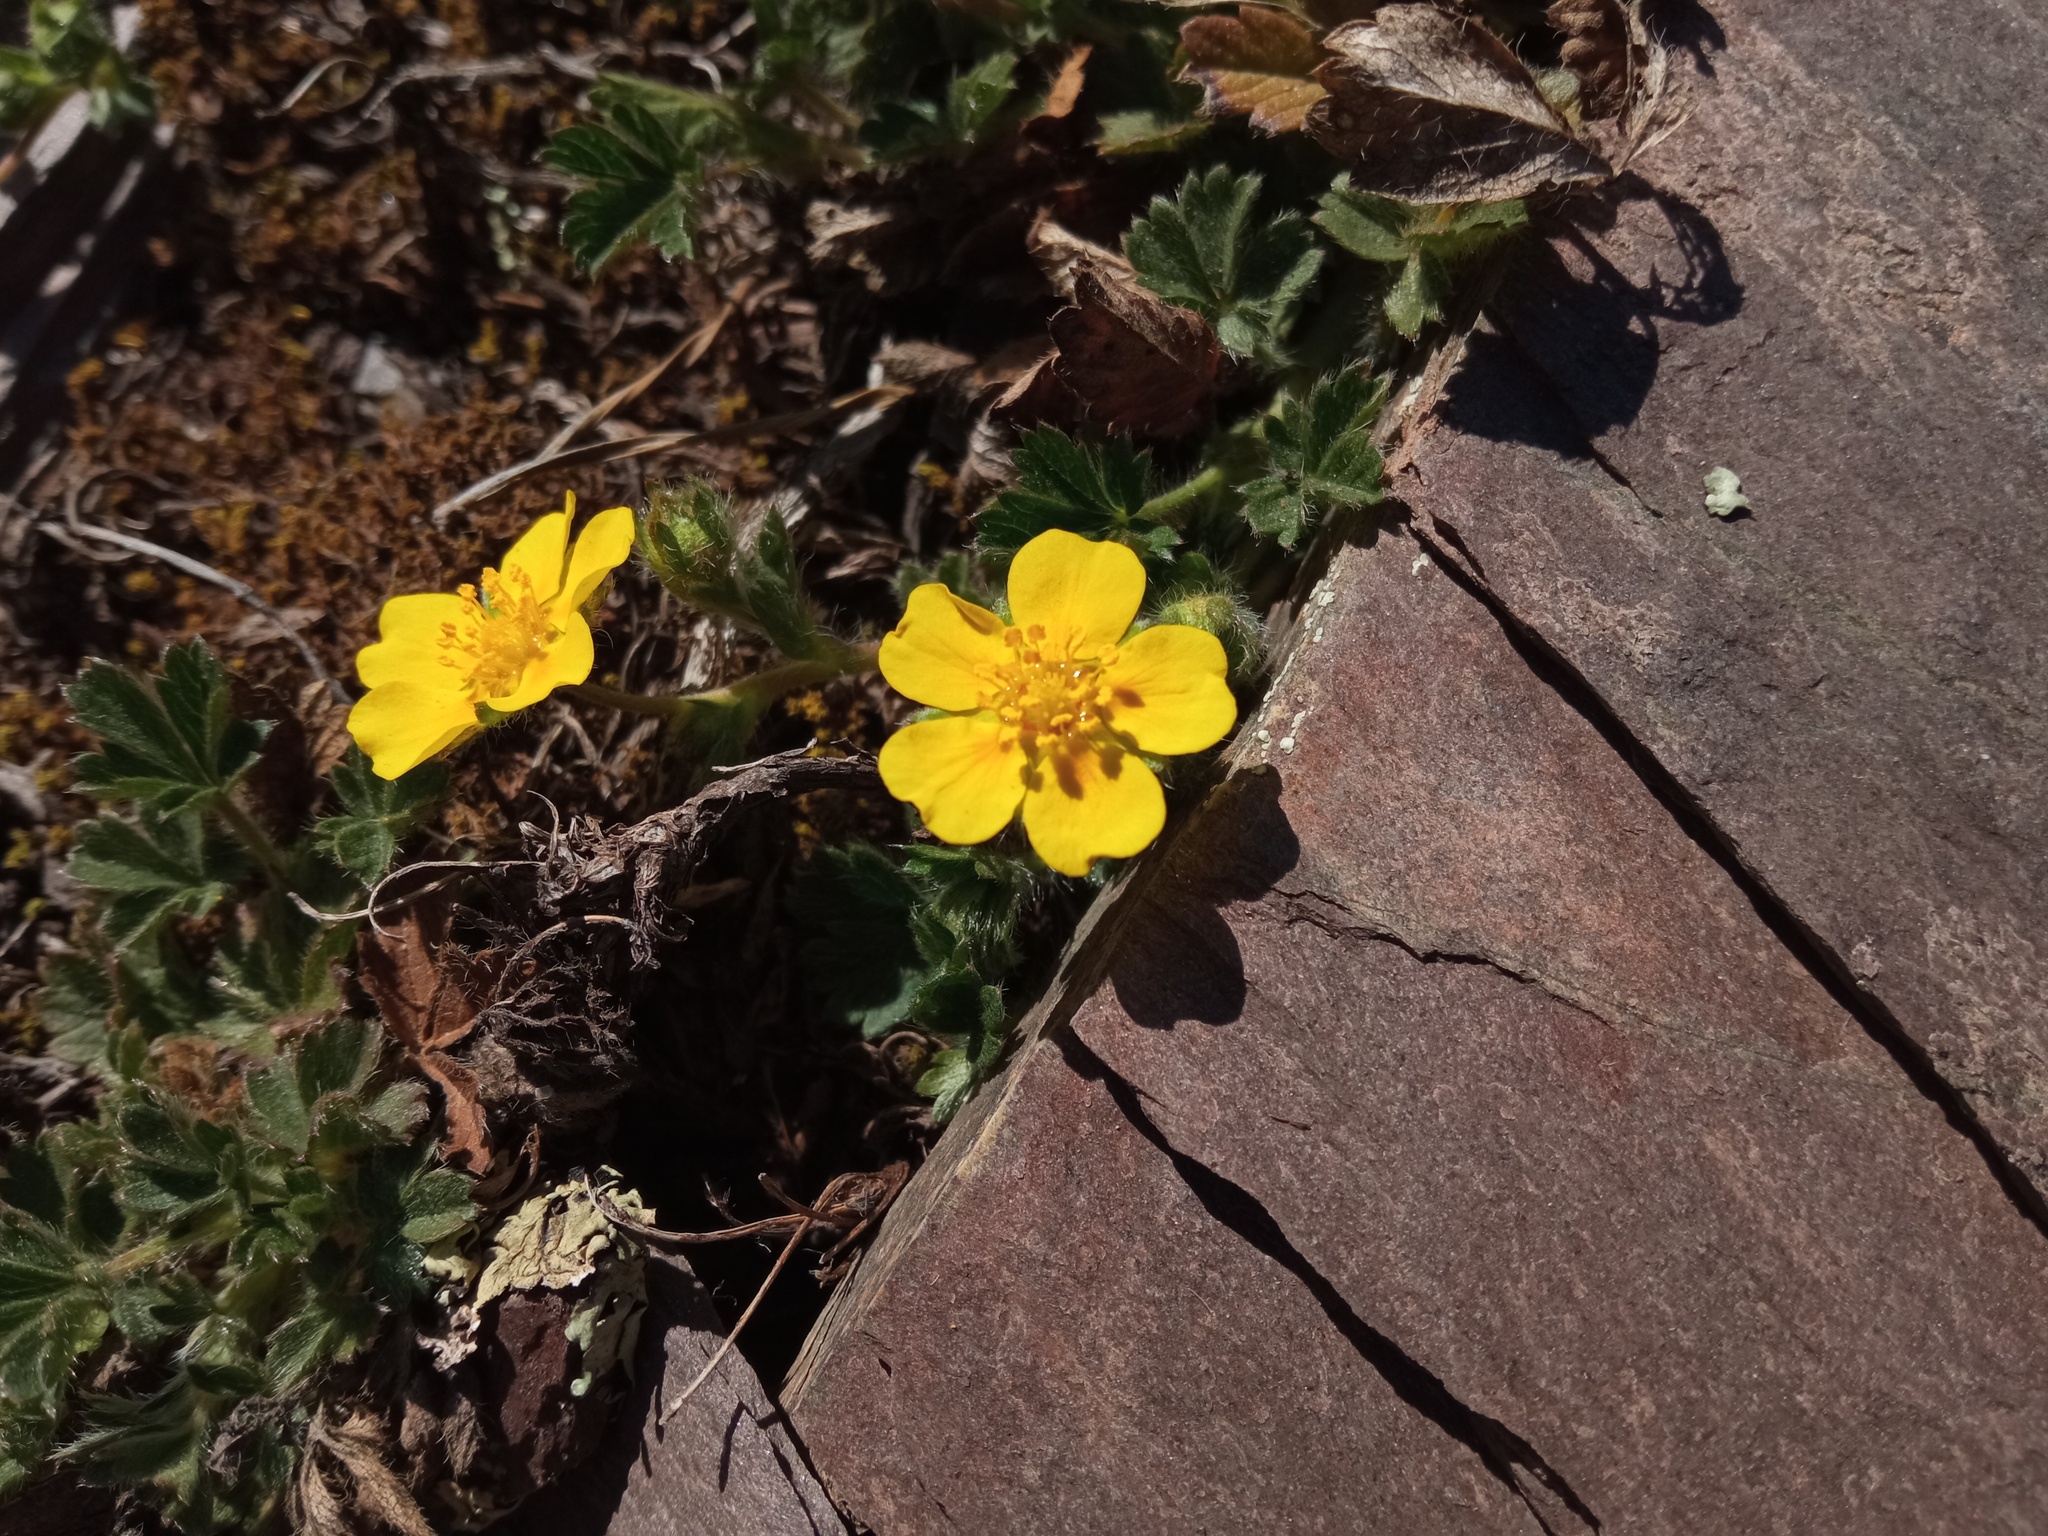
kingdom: Plantae
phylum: Tracheophyta
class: Magnoliopsida
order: Rosales
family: Rosaceae
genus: Potentilla
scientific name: Potentilla verna
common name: Spring cinquefoil
